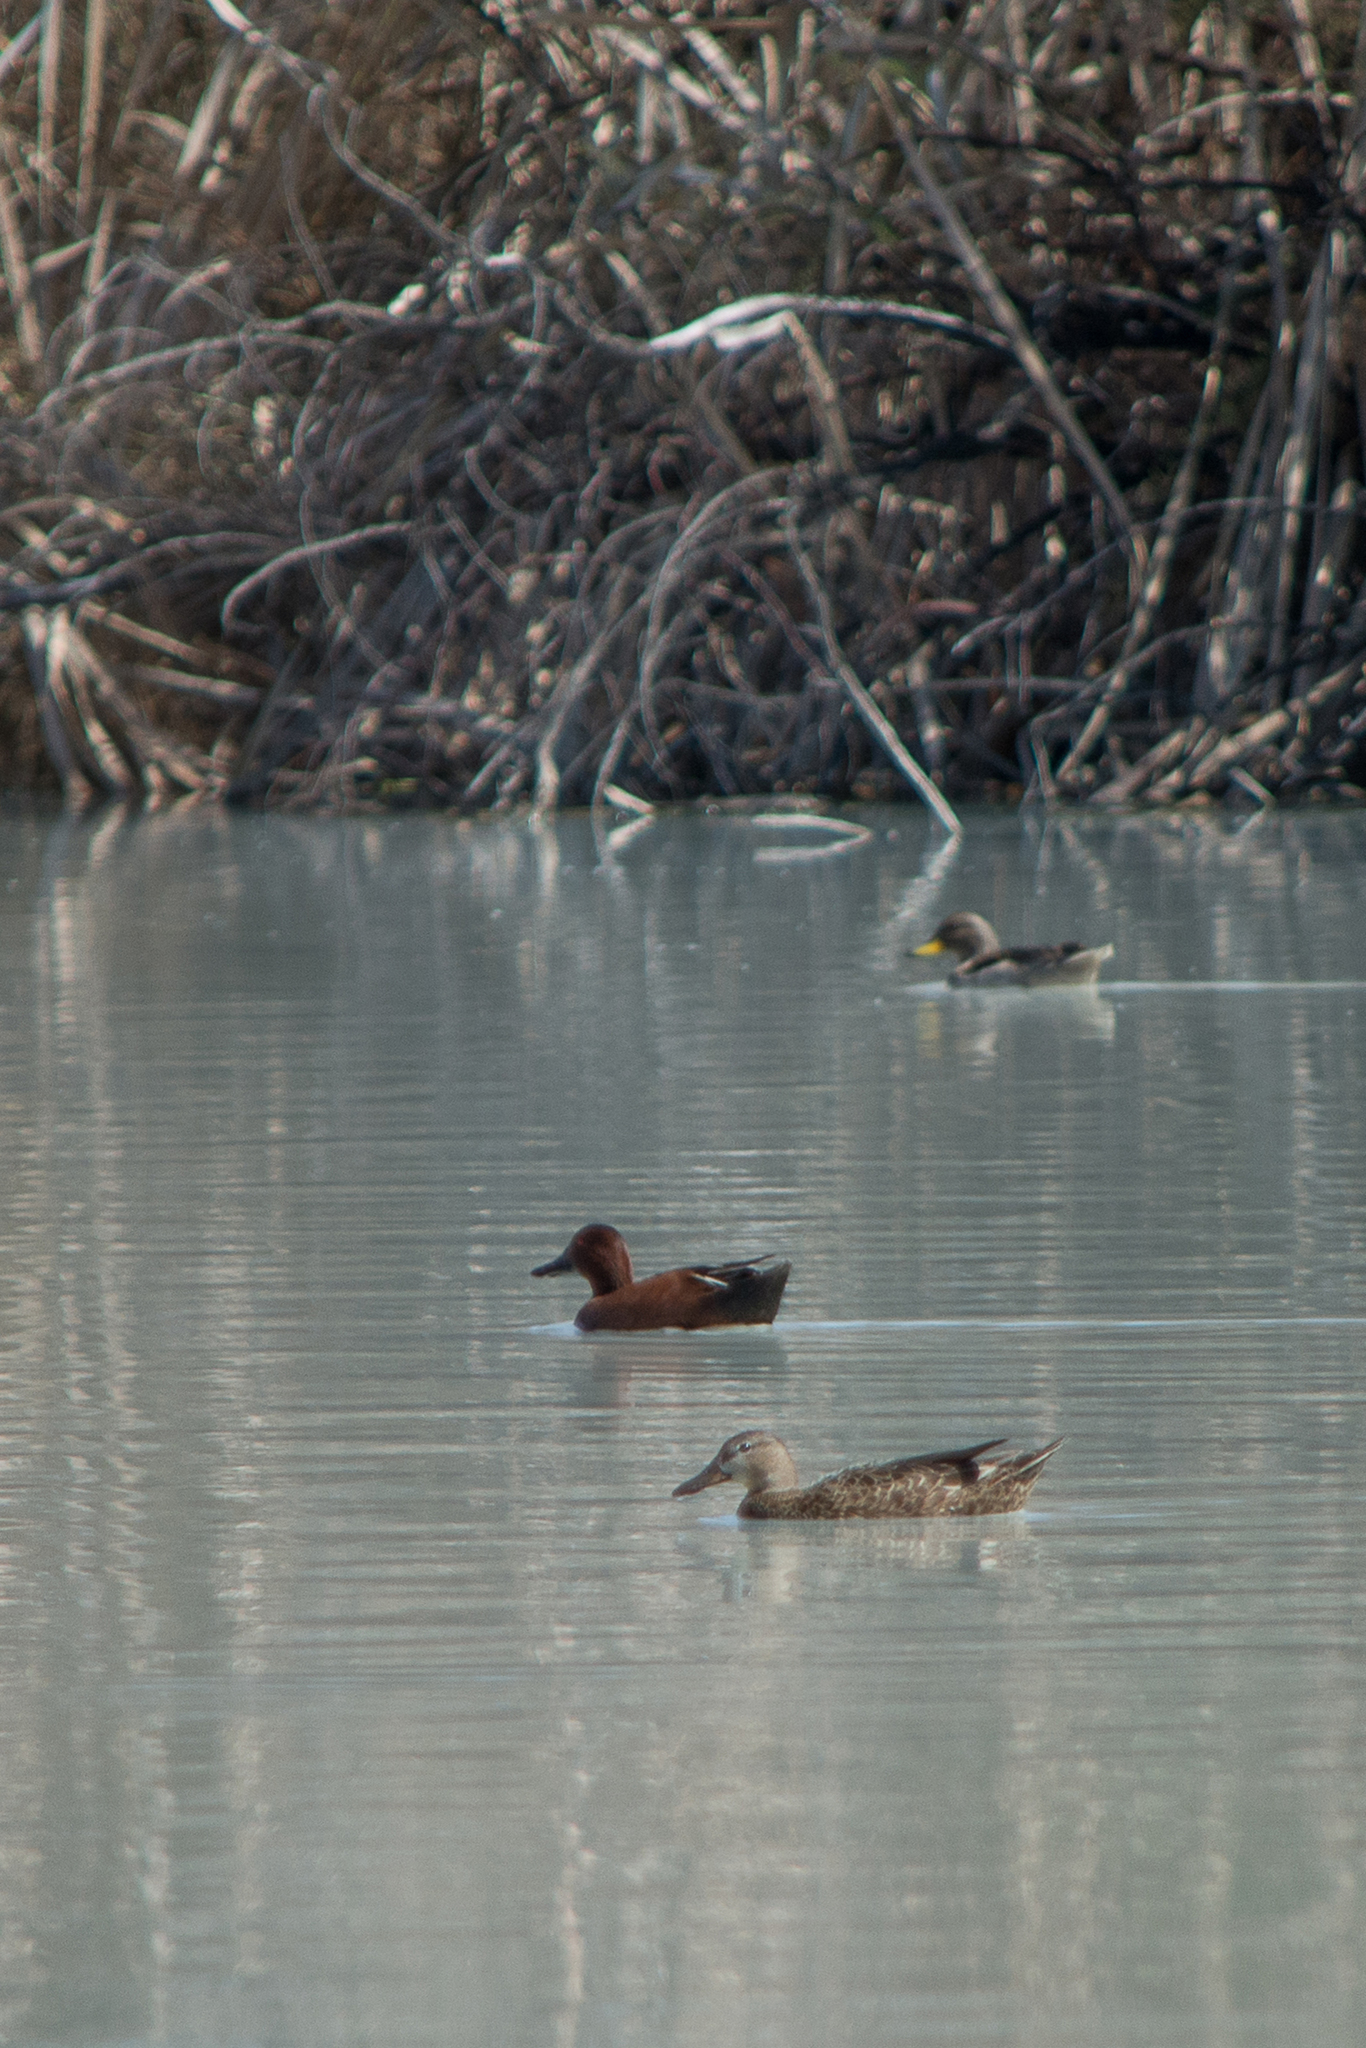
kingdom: Animalia
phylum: Chordata
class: Aves
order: Anseriformes
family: Anatidae
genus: Spatula
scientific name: Spatula cyanoptera
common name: Cinnamon teal
